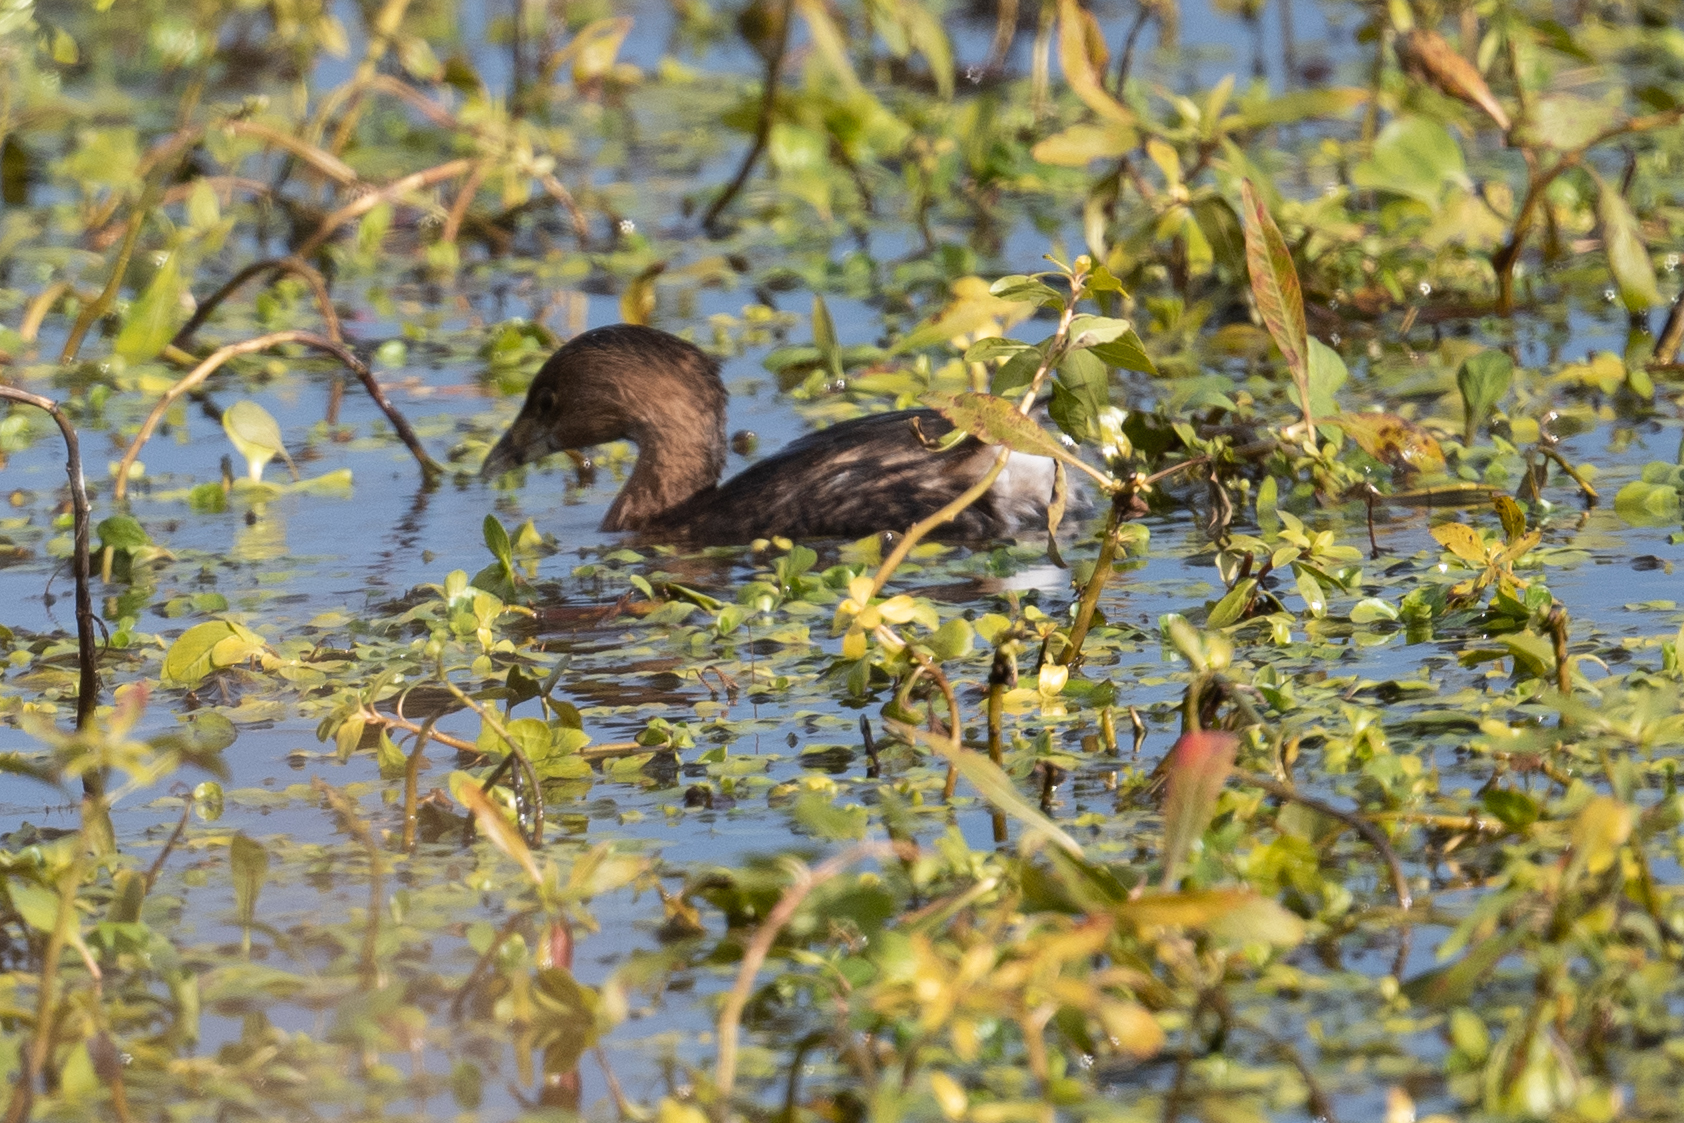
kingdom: Animalia
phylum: Chordata
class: Aves
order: Podicipediformes
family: Podicipedidae
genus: Podilymbus
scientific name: Podilymbus podiceps
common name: Pied-billed grebe
